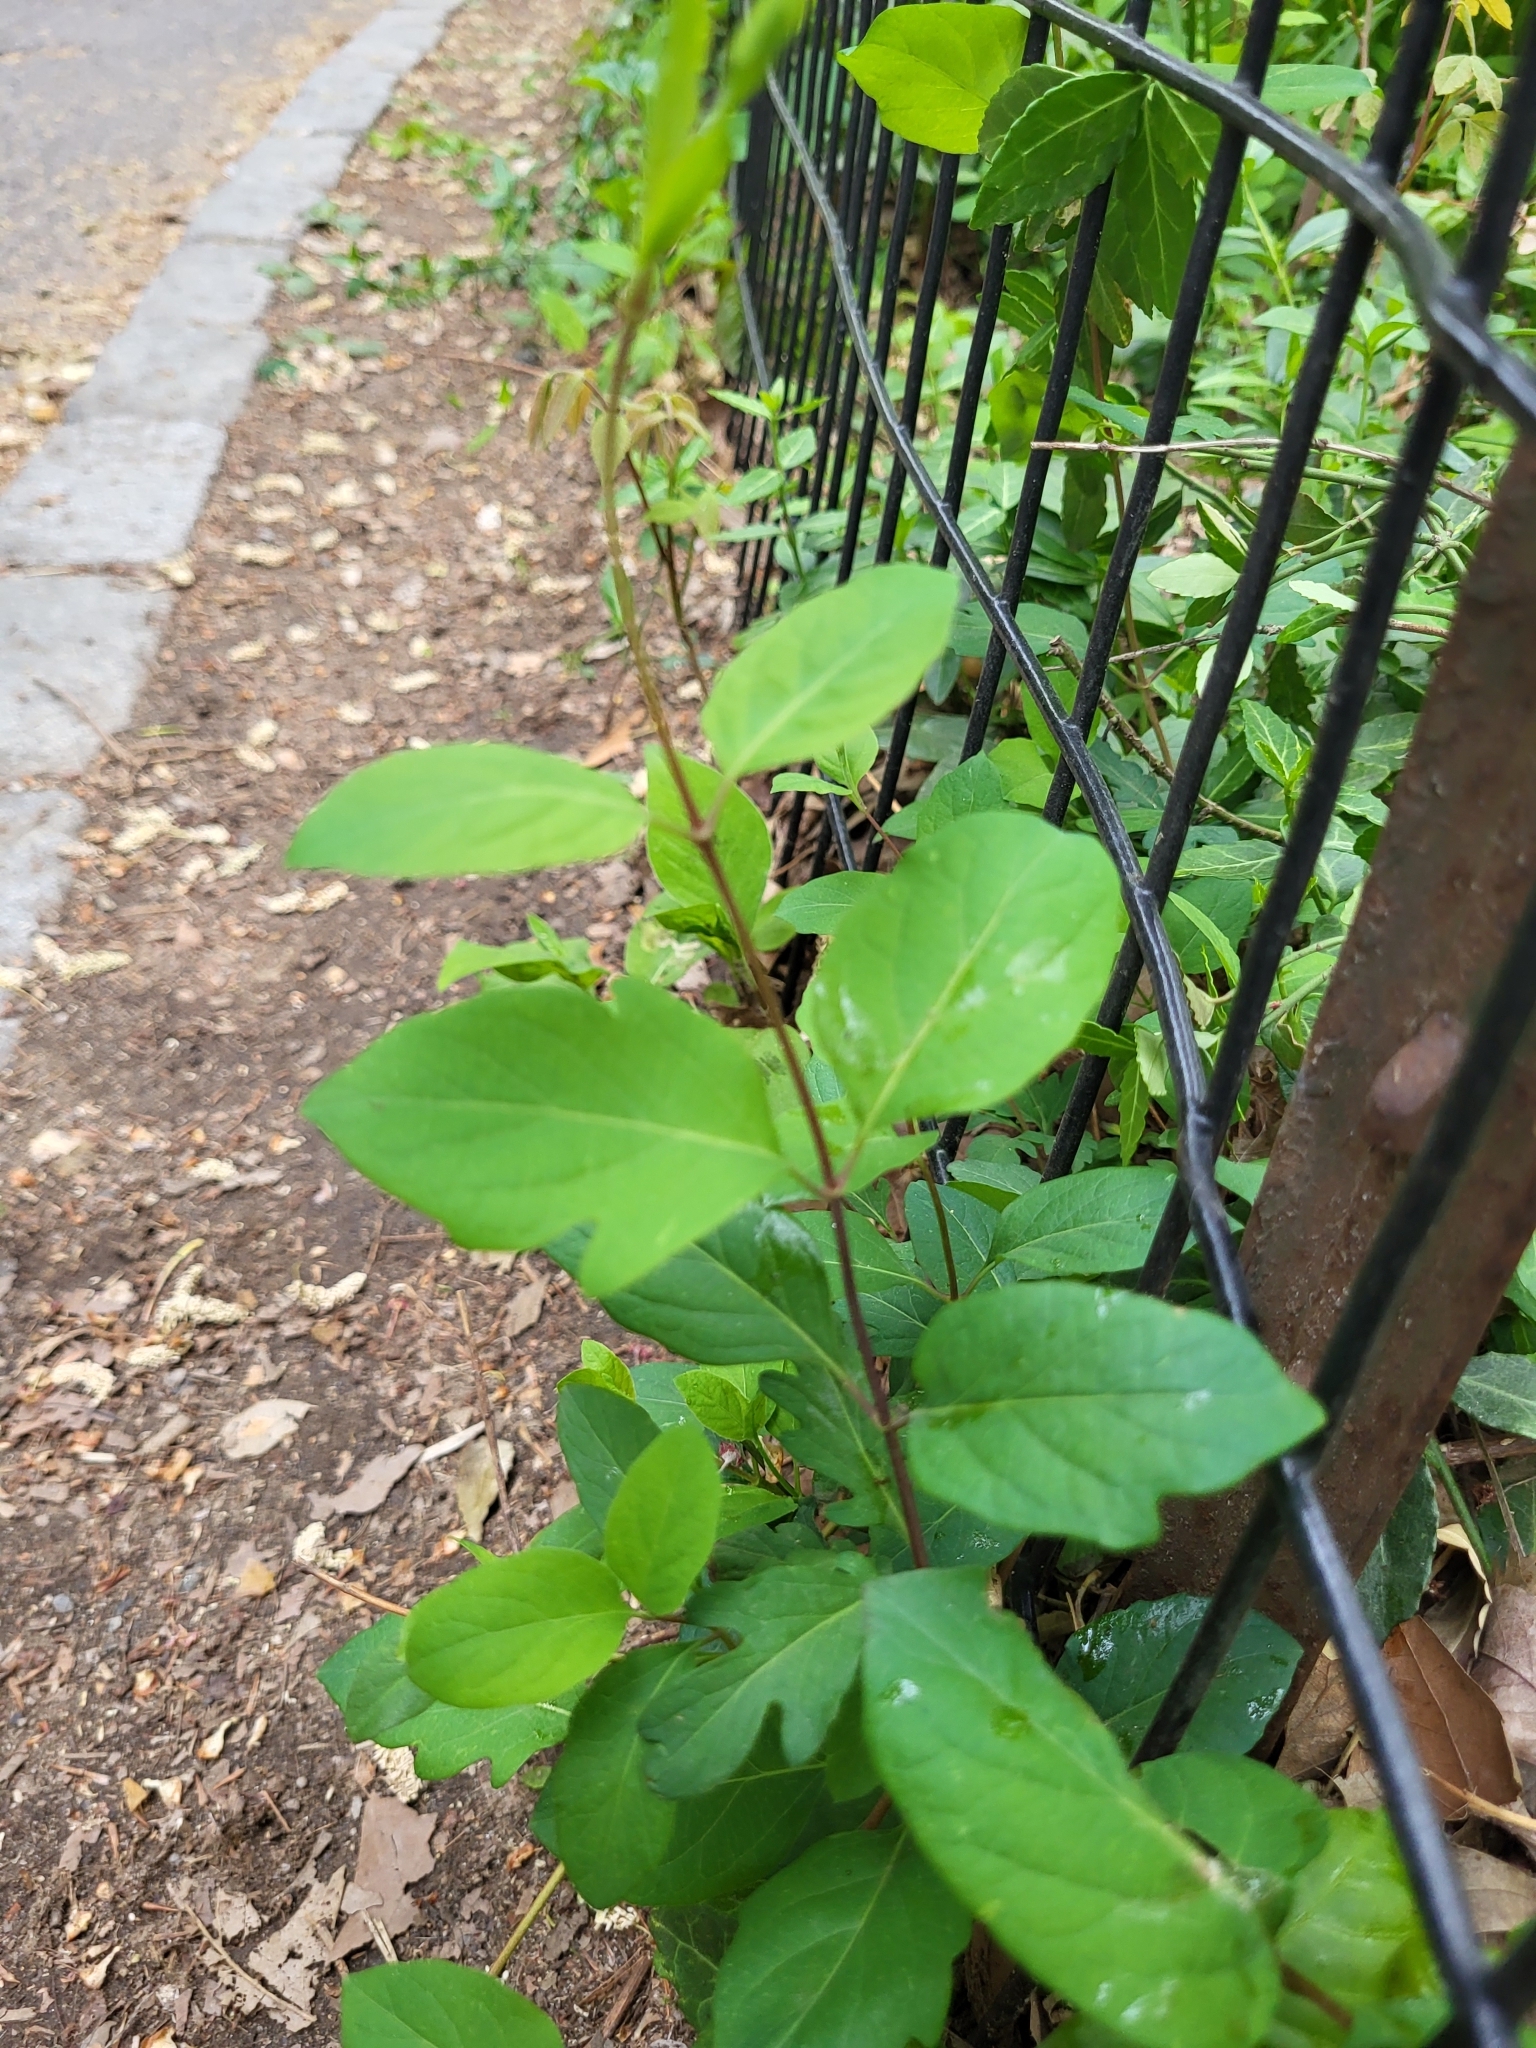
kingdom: Plantae
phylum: Tracheophyta
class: Magnoliopsida
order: Dipsacales
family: Caprifoliaceae
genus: Lonicera
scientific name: Lonicera japonica
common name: Japanese honeysuckle
